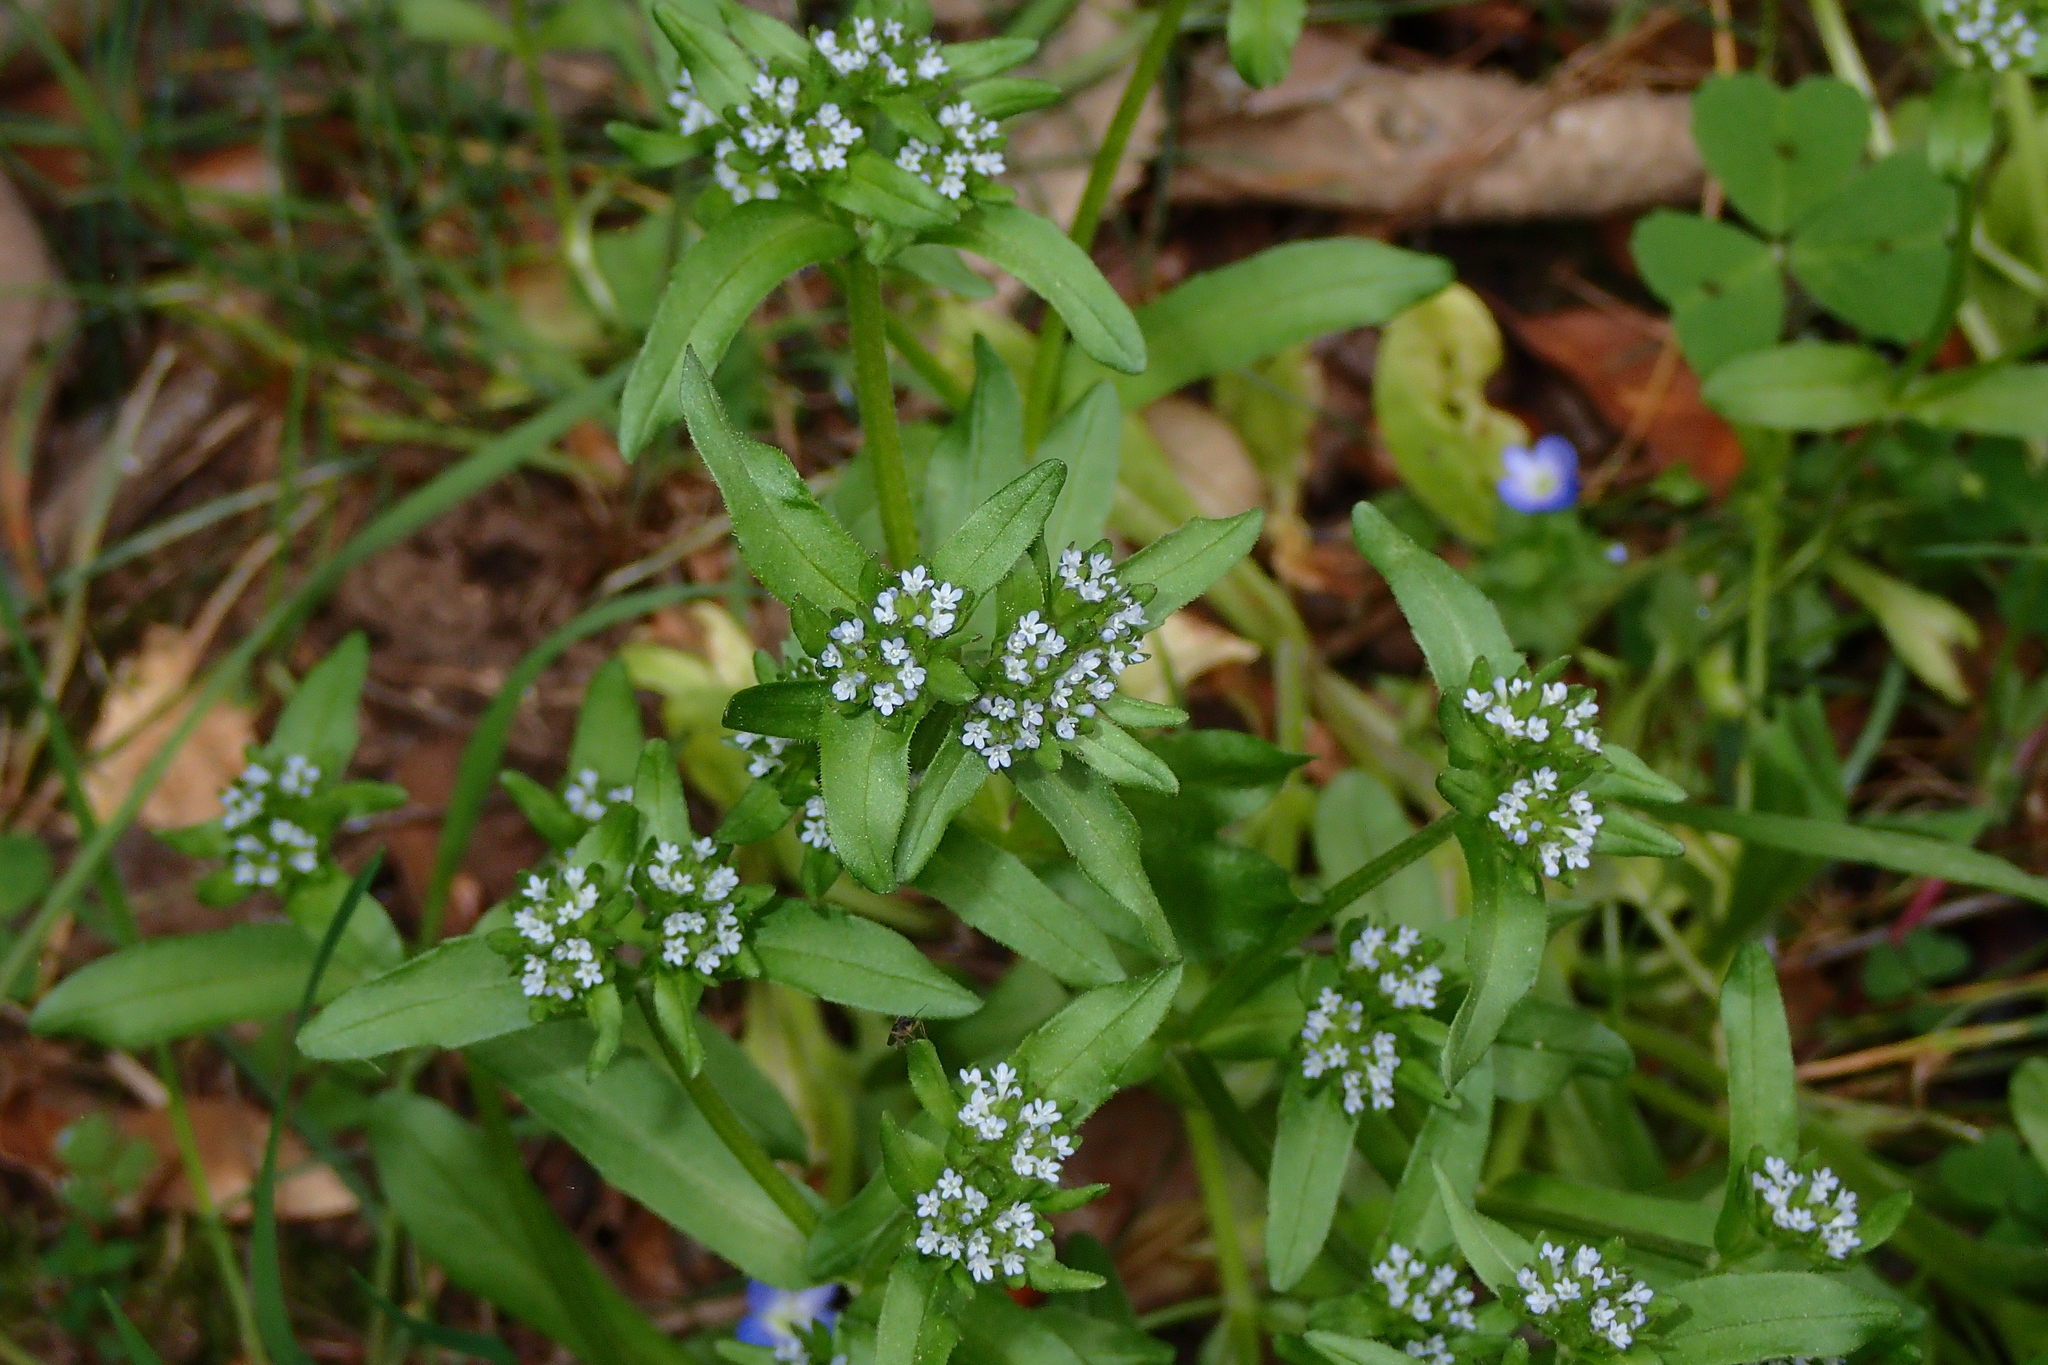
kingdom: Plantae
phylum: Tracheophyta
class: Magnoliopsida
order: Dipsacales
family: Caprifoliaceae
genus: Valerianella
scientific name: Valerianella locusta
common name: Common cornsalad
